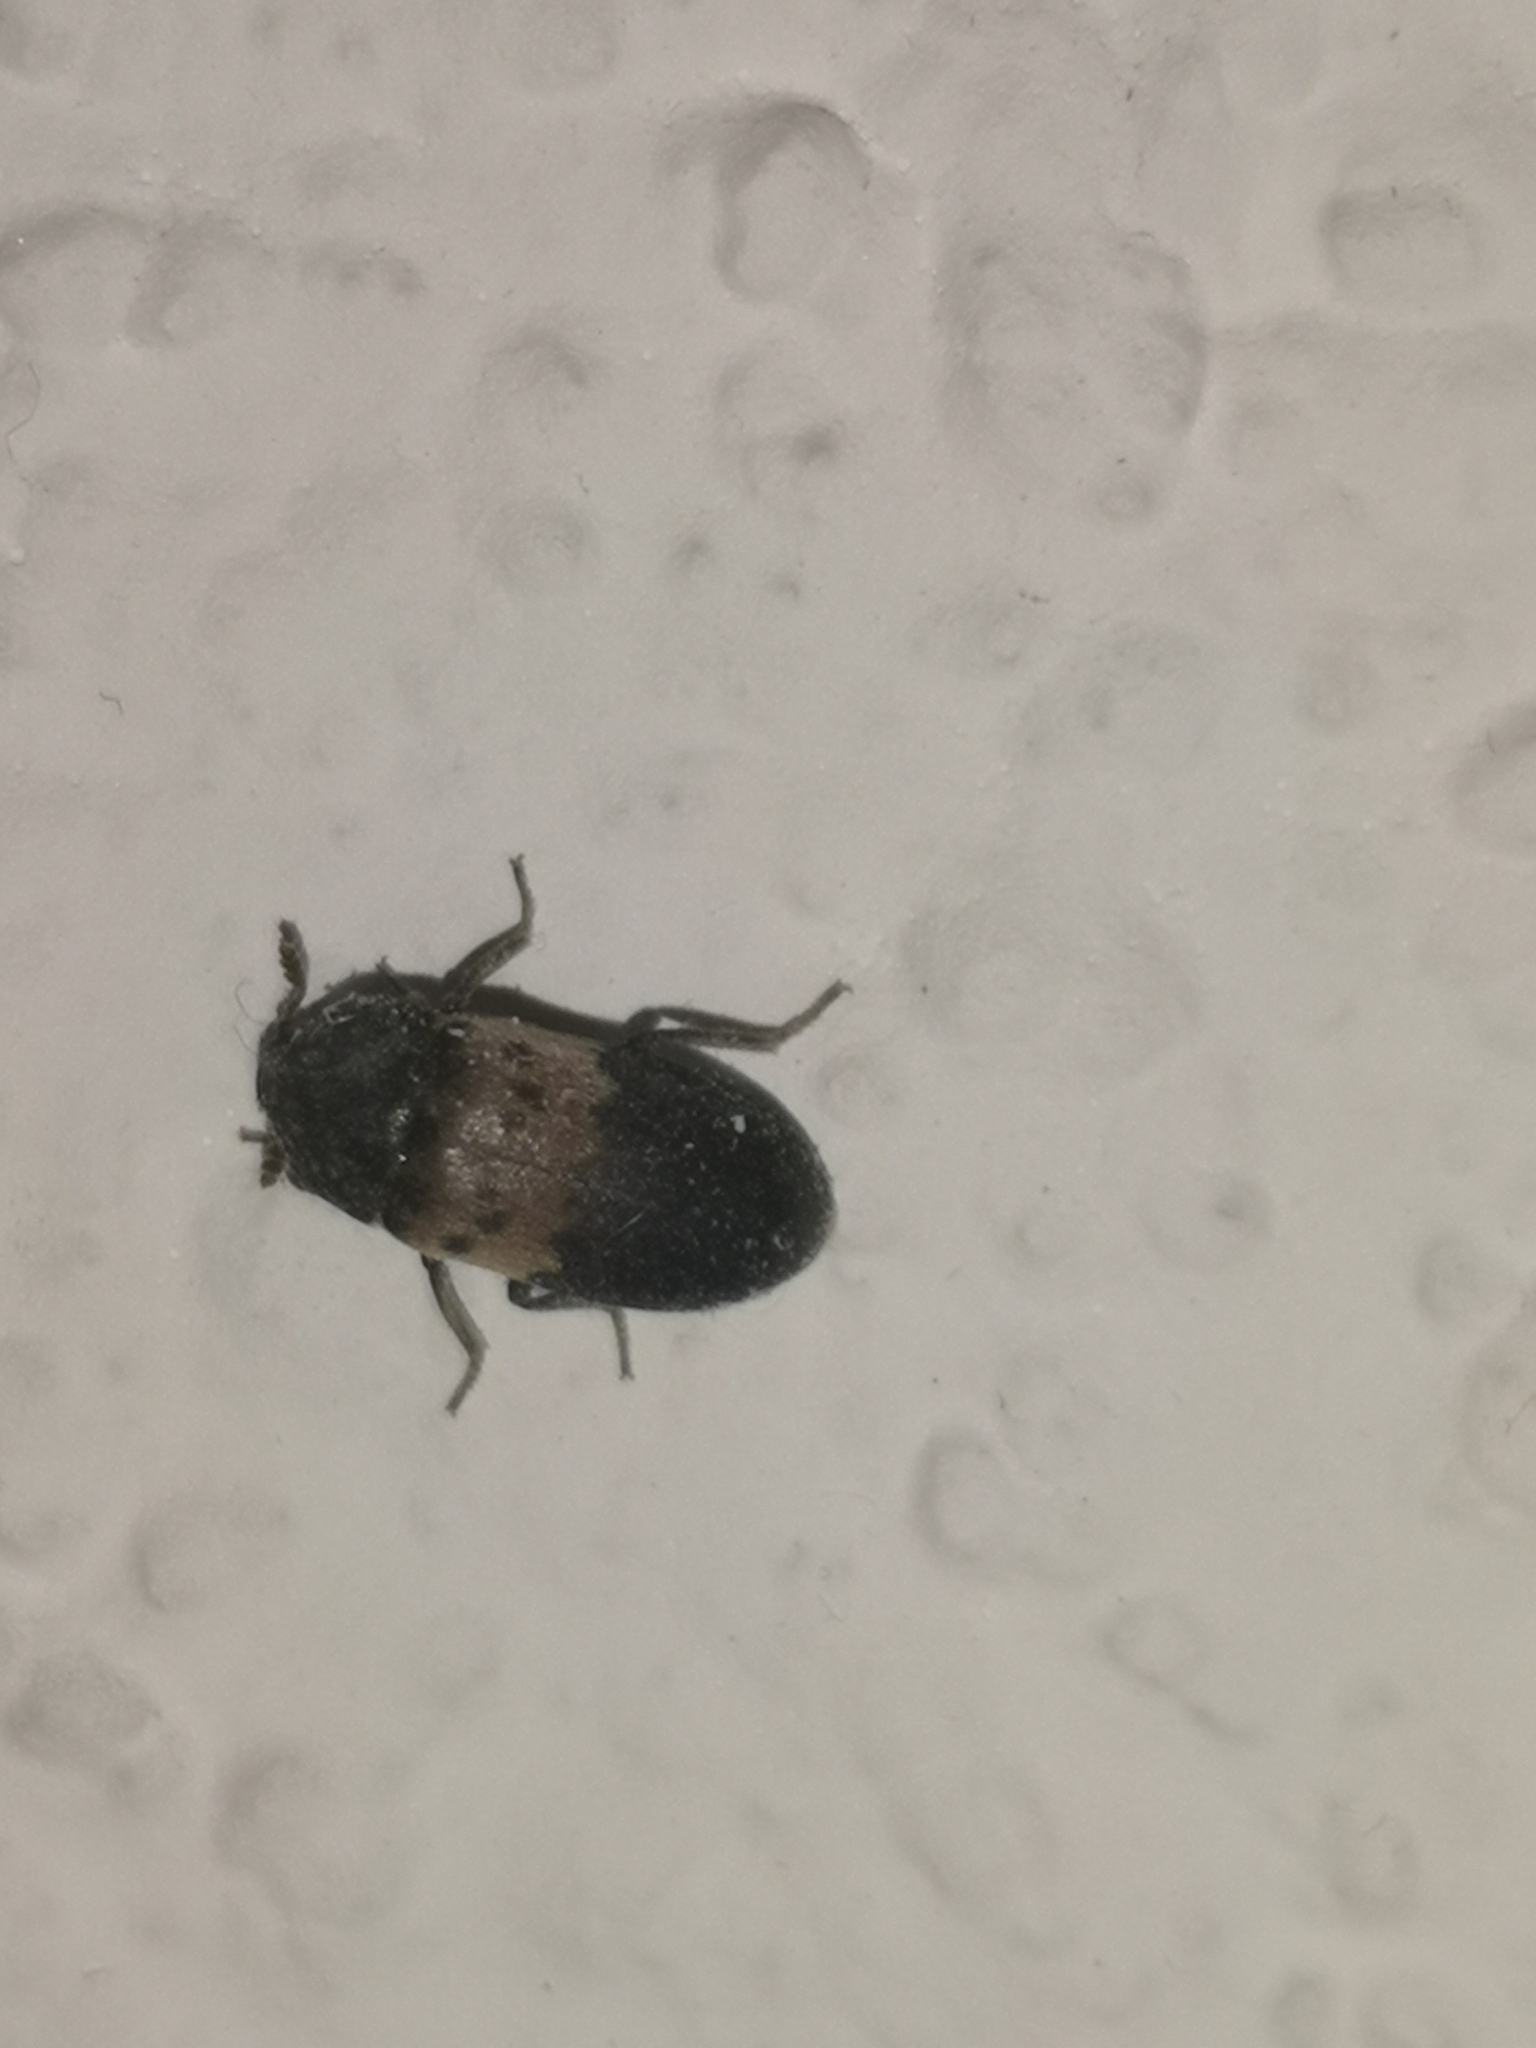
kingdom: Animalia
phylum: Arthropoda
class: Insecta
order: Coleoptera
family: Dermestidae
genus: Dermestes
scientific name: Dermestes lardarius
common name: Larder beetle
